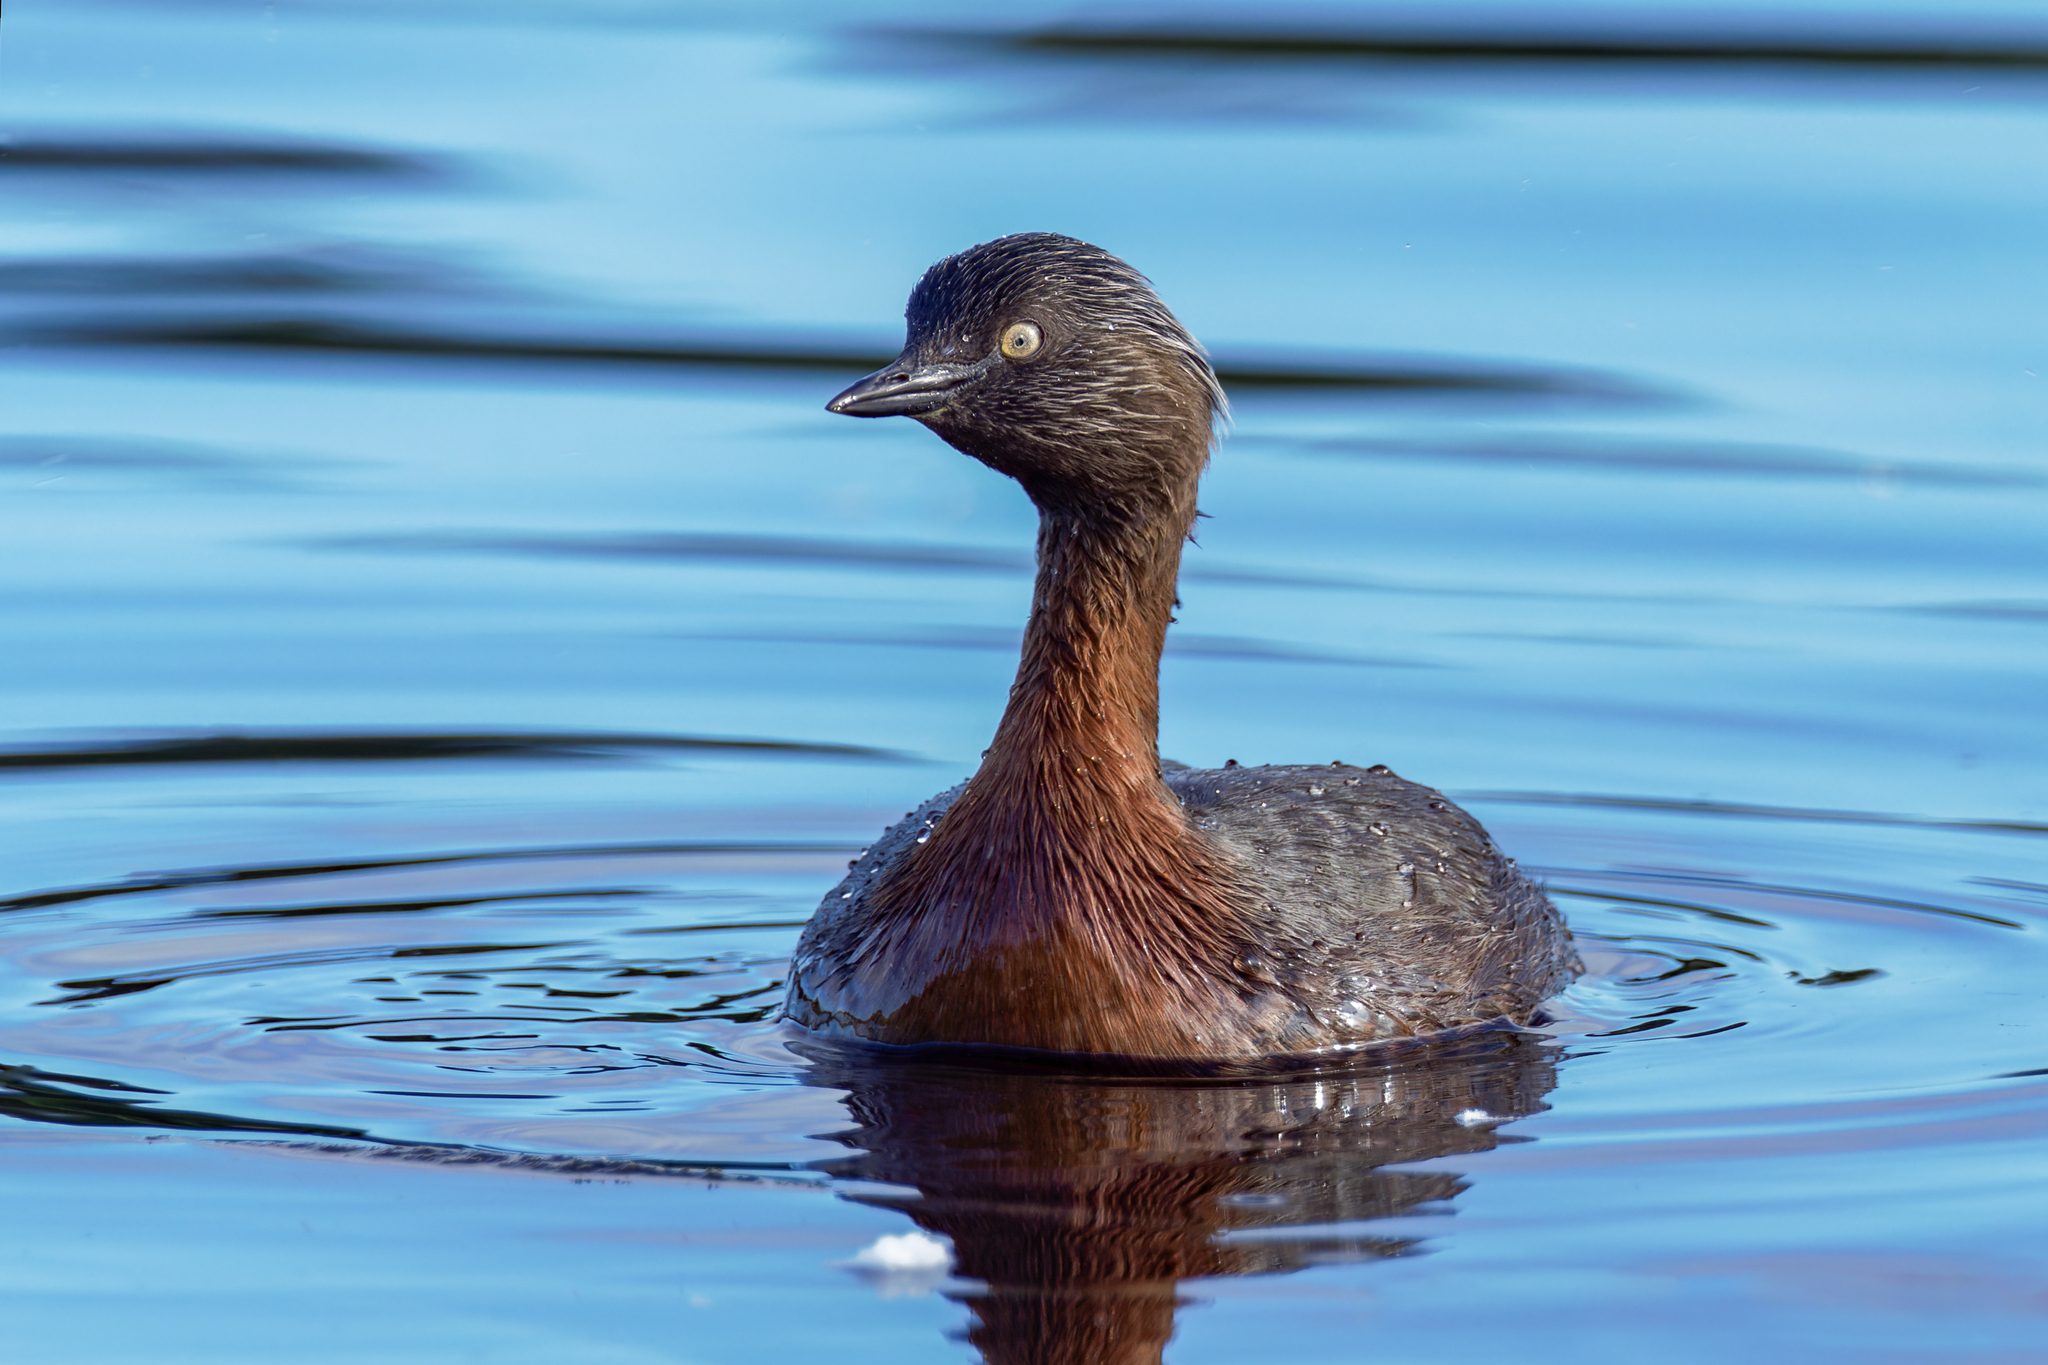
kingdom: Animalia
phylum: Chordata
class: Aves
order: Podicipediformes
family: Podicipedidae
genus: Poliocephalus
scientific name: Poliocephalus rufopectus
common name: New zealand grebe
